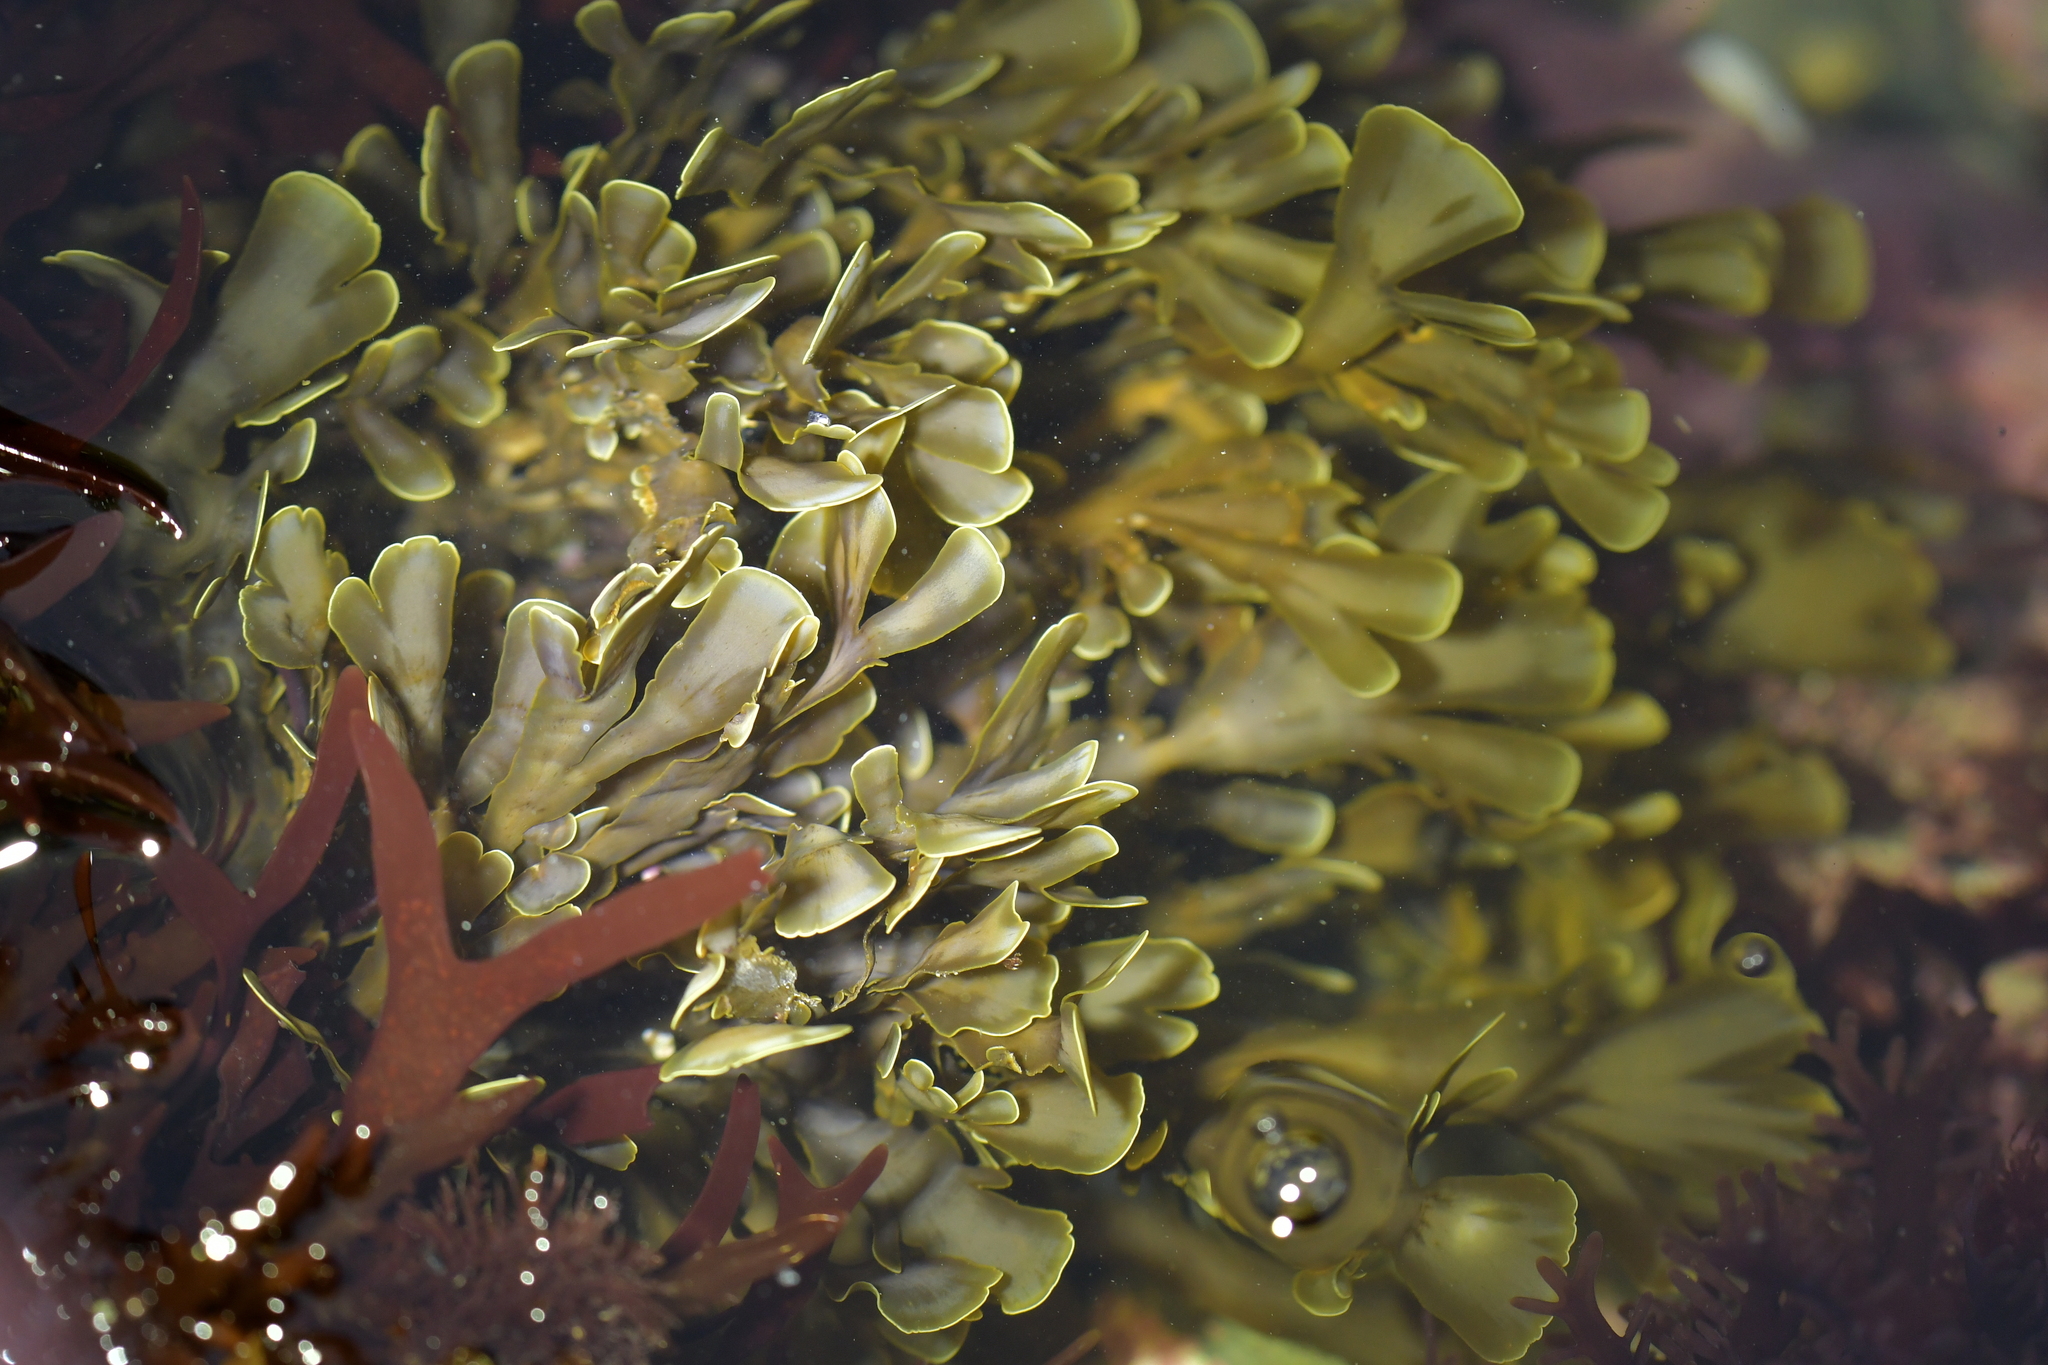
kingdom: Chromista
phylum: Ochrophyta
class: Phaeophyceae
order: Dictyotales
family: Dictyotaceae
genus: Zonaria
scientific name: Zonaria turneriana
